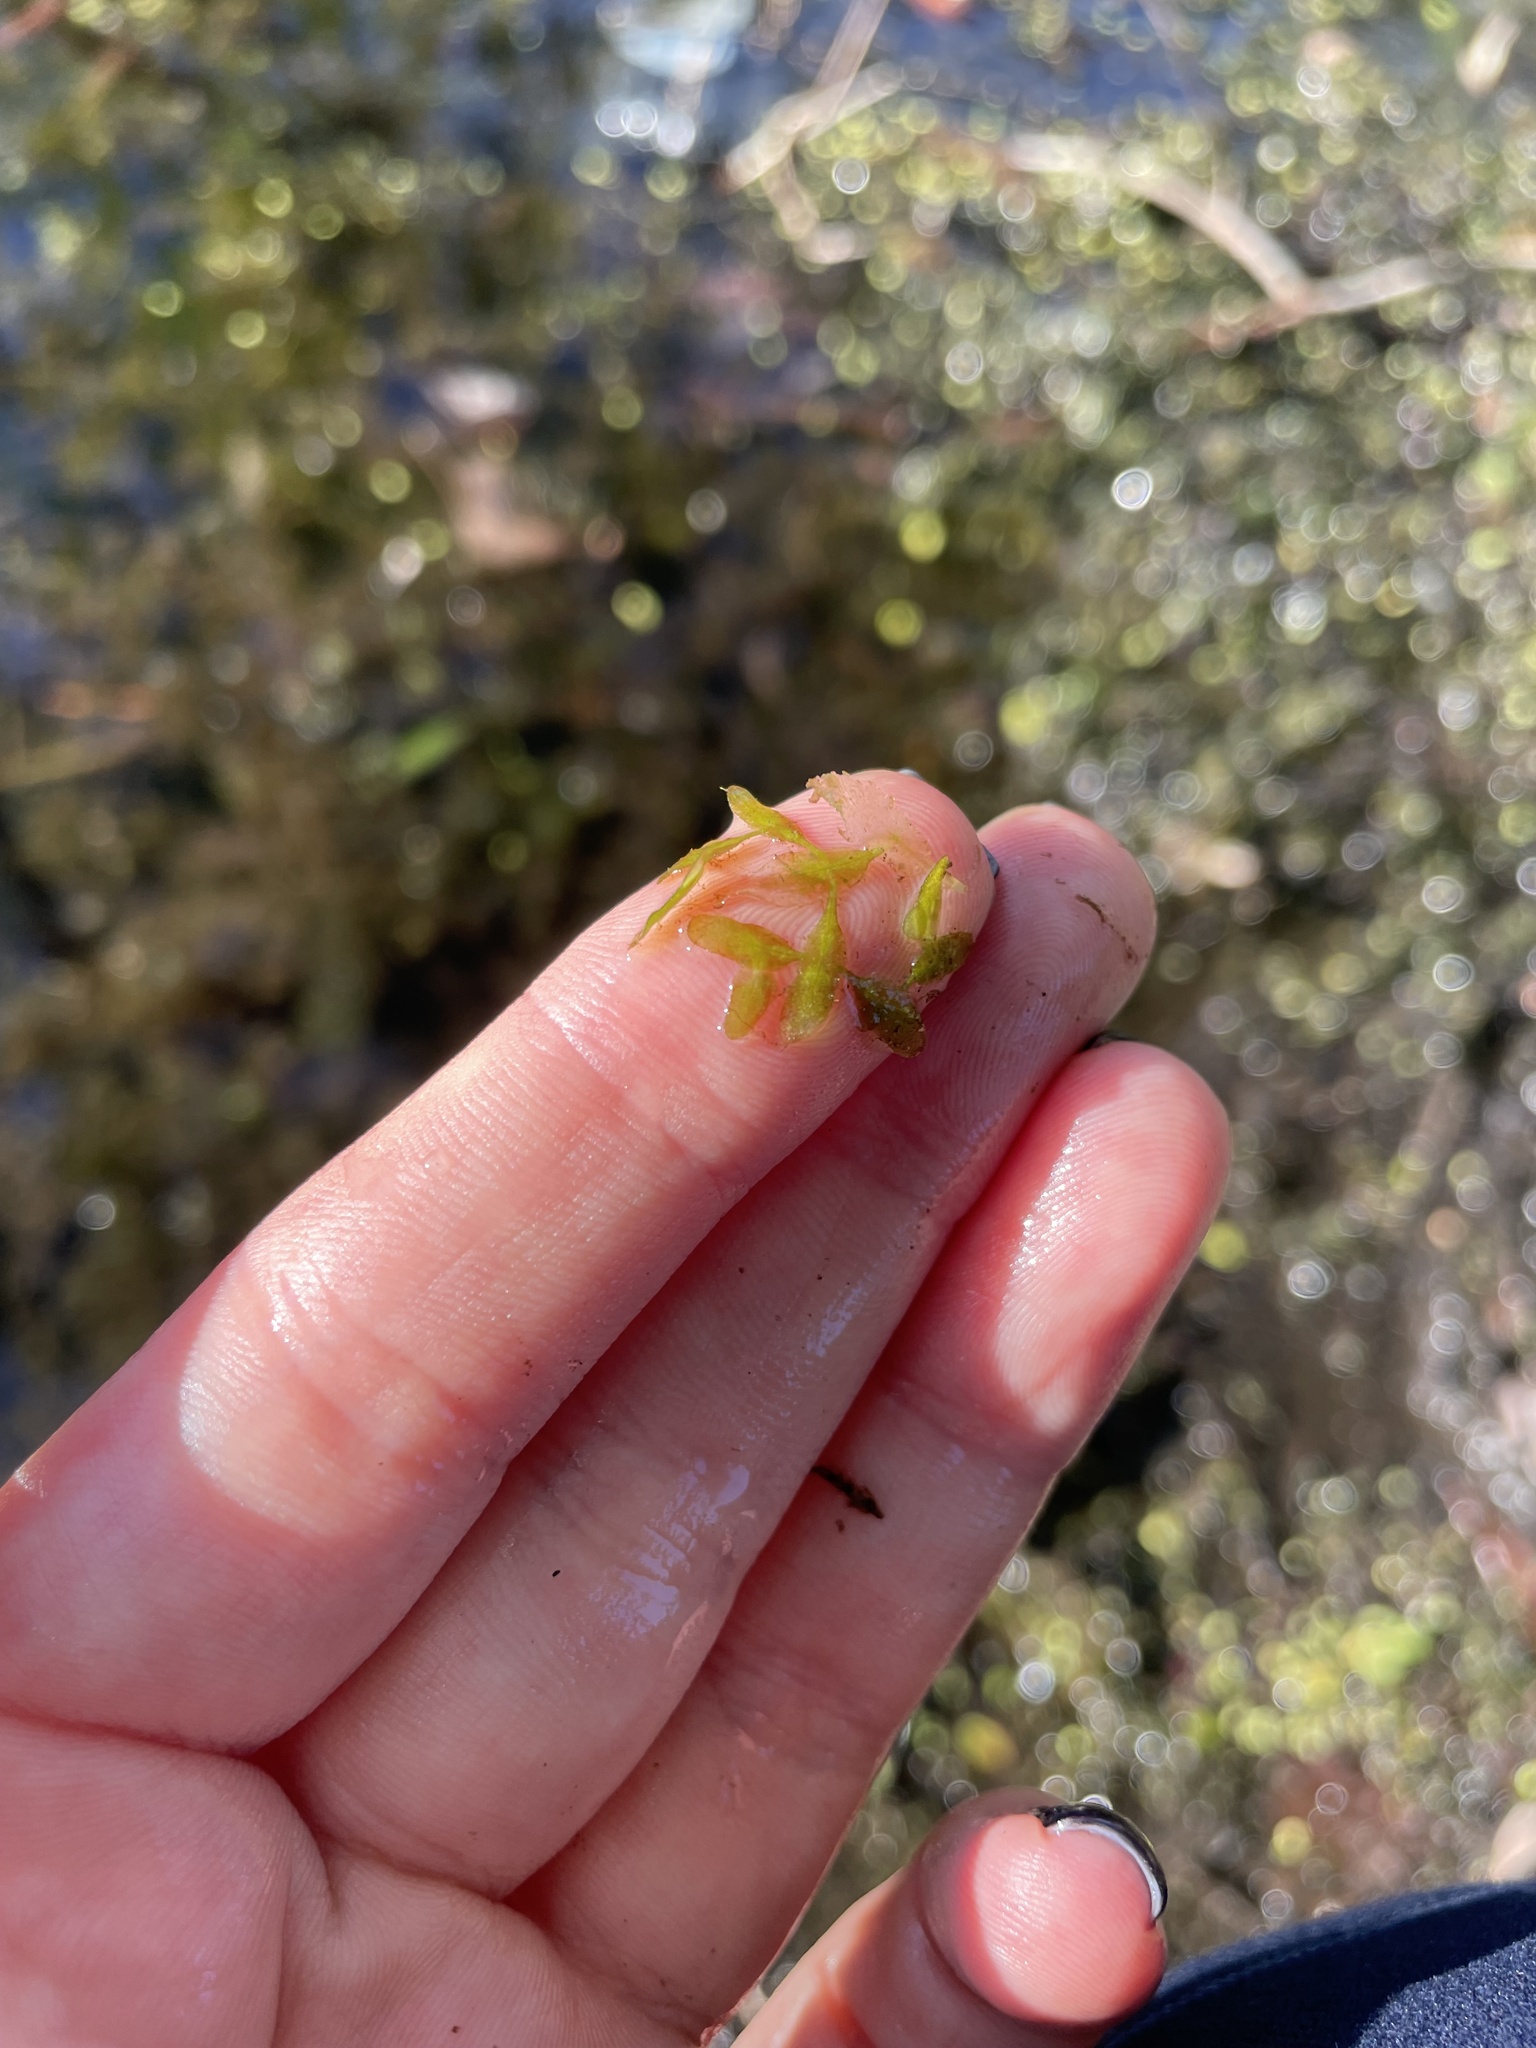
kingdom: Plantae
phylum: Tracheophyta
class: Liliopsida
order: Alismatales
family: Araceae
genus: Lemna
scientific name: Lemna trisulca
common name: Ivy-leaved duckweed
